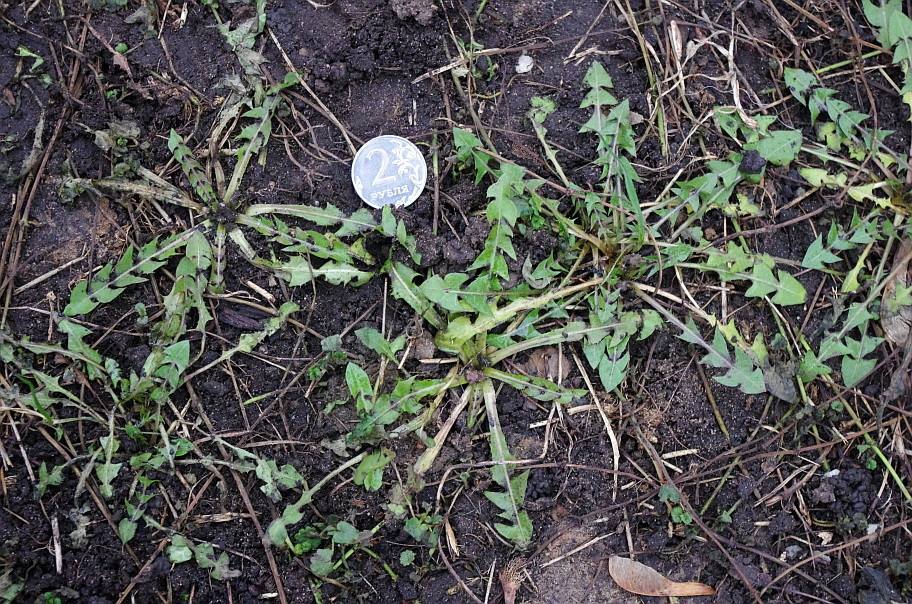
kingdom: Plantae
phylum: Tracheophyta
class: Magnoliopsida
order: Asterales
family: Asteraceae
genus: Taraxacum
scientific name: Taraxacum officinale
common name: Common dandelion
